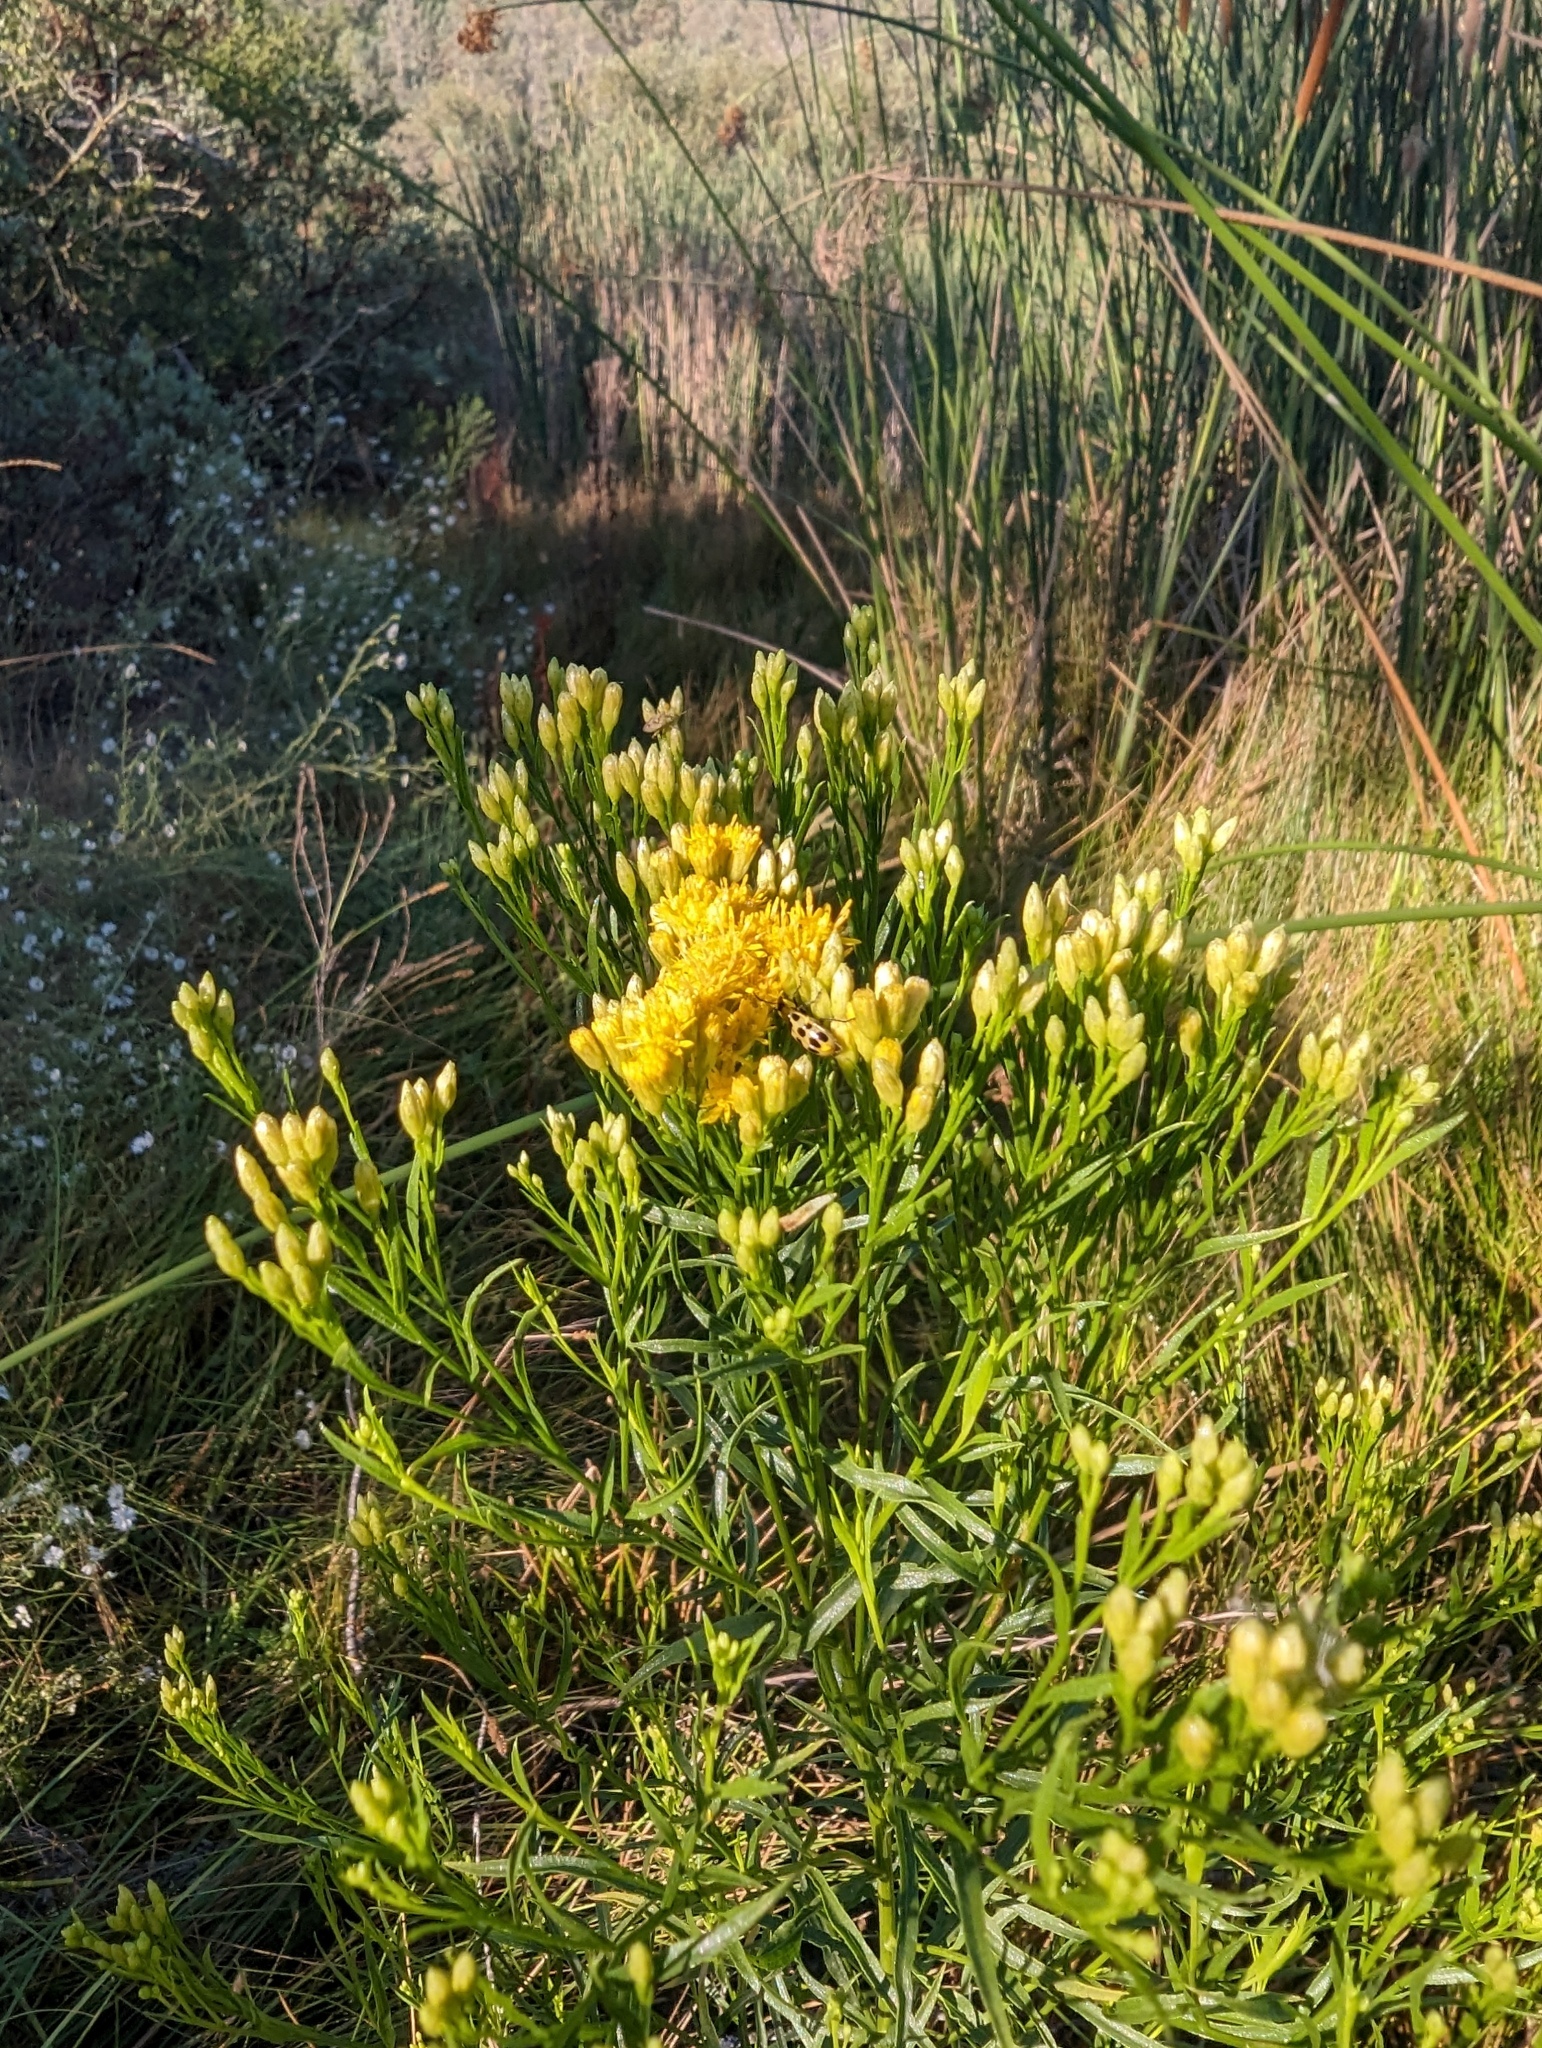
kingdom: Plantae
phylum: Tracheophyta
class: Magnoliopsida
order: Asterales
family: Asteraceae
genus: Euthamia
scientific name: Euthamia occidentalis
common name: Western goldentop
